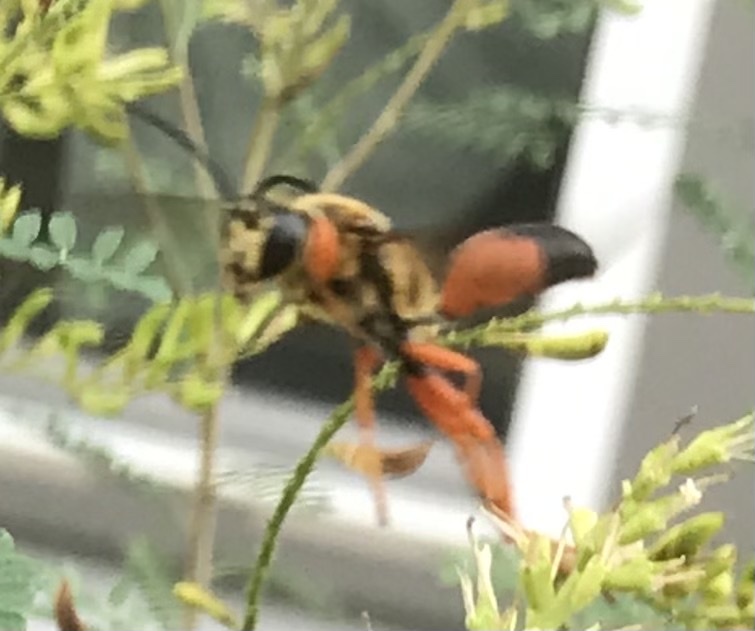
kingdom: Animalia
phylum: Arthropoda
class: Insecta
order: Hymenoptera
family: Sphecidae
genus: Sphex
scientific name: Sphex ichneumoneus
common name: Great golden digger wasp
